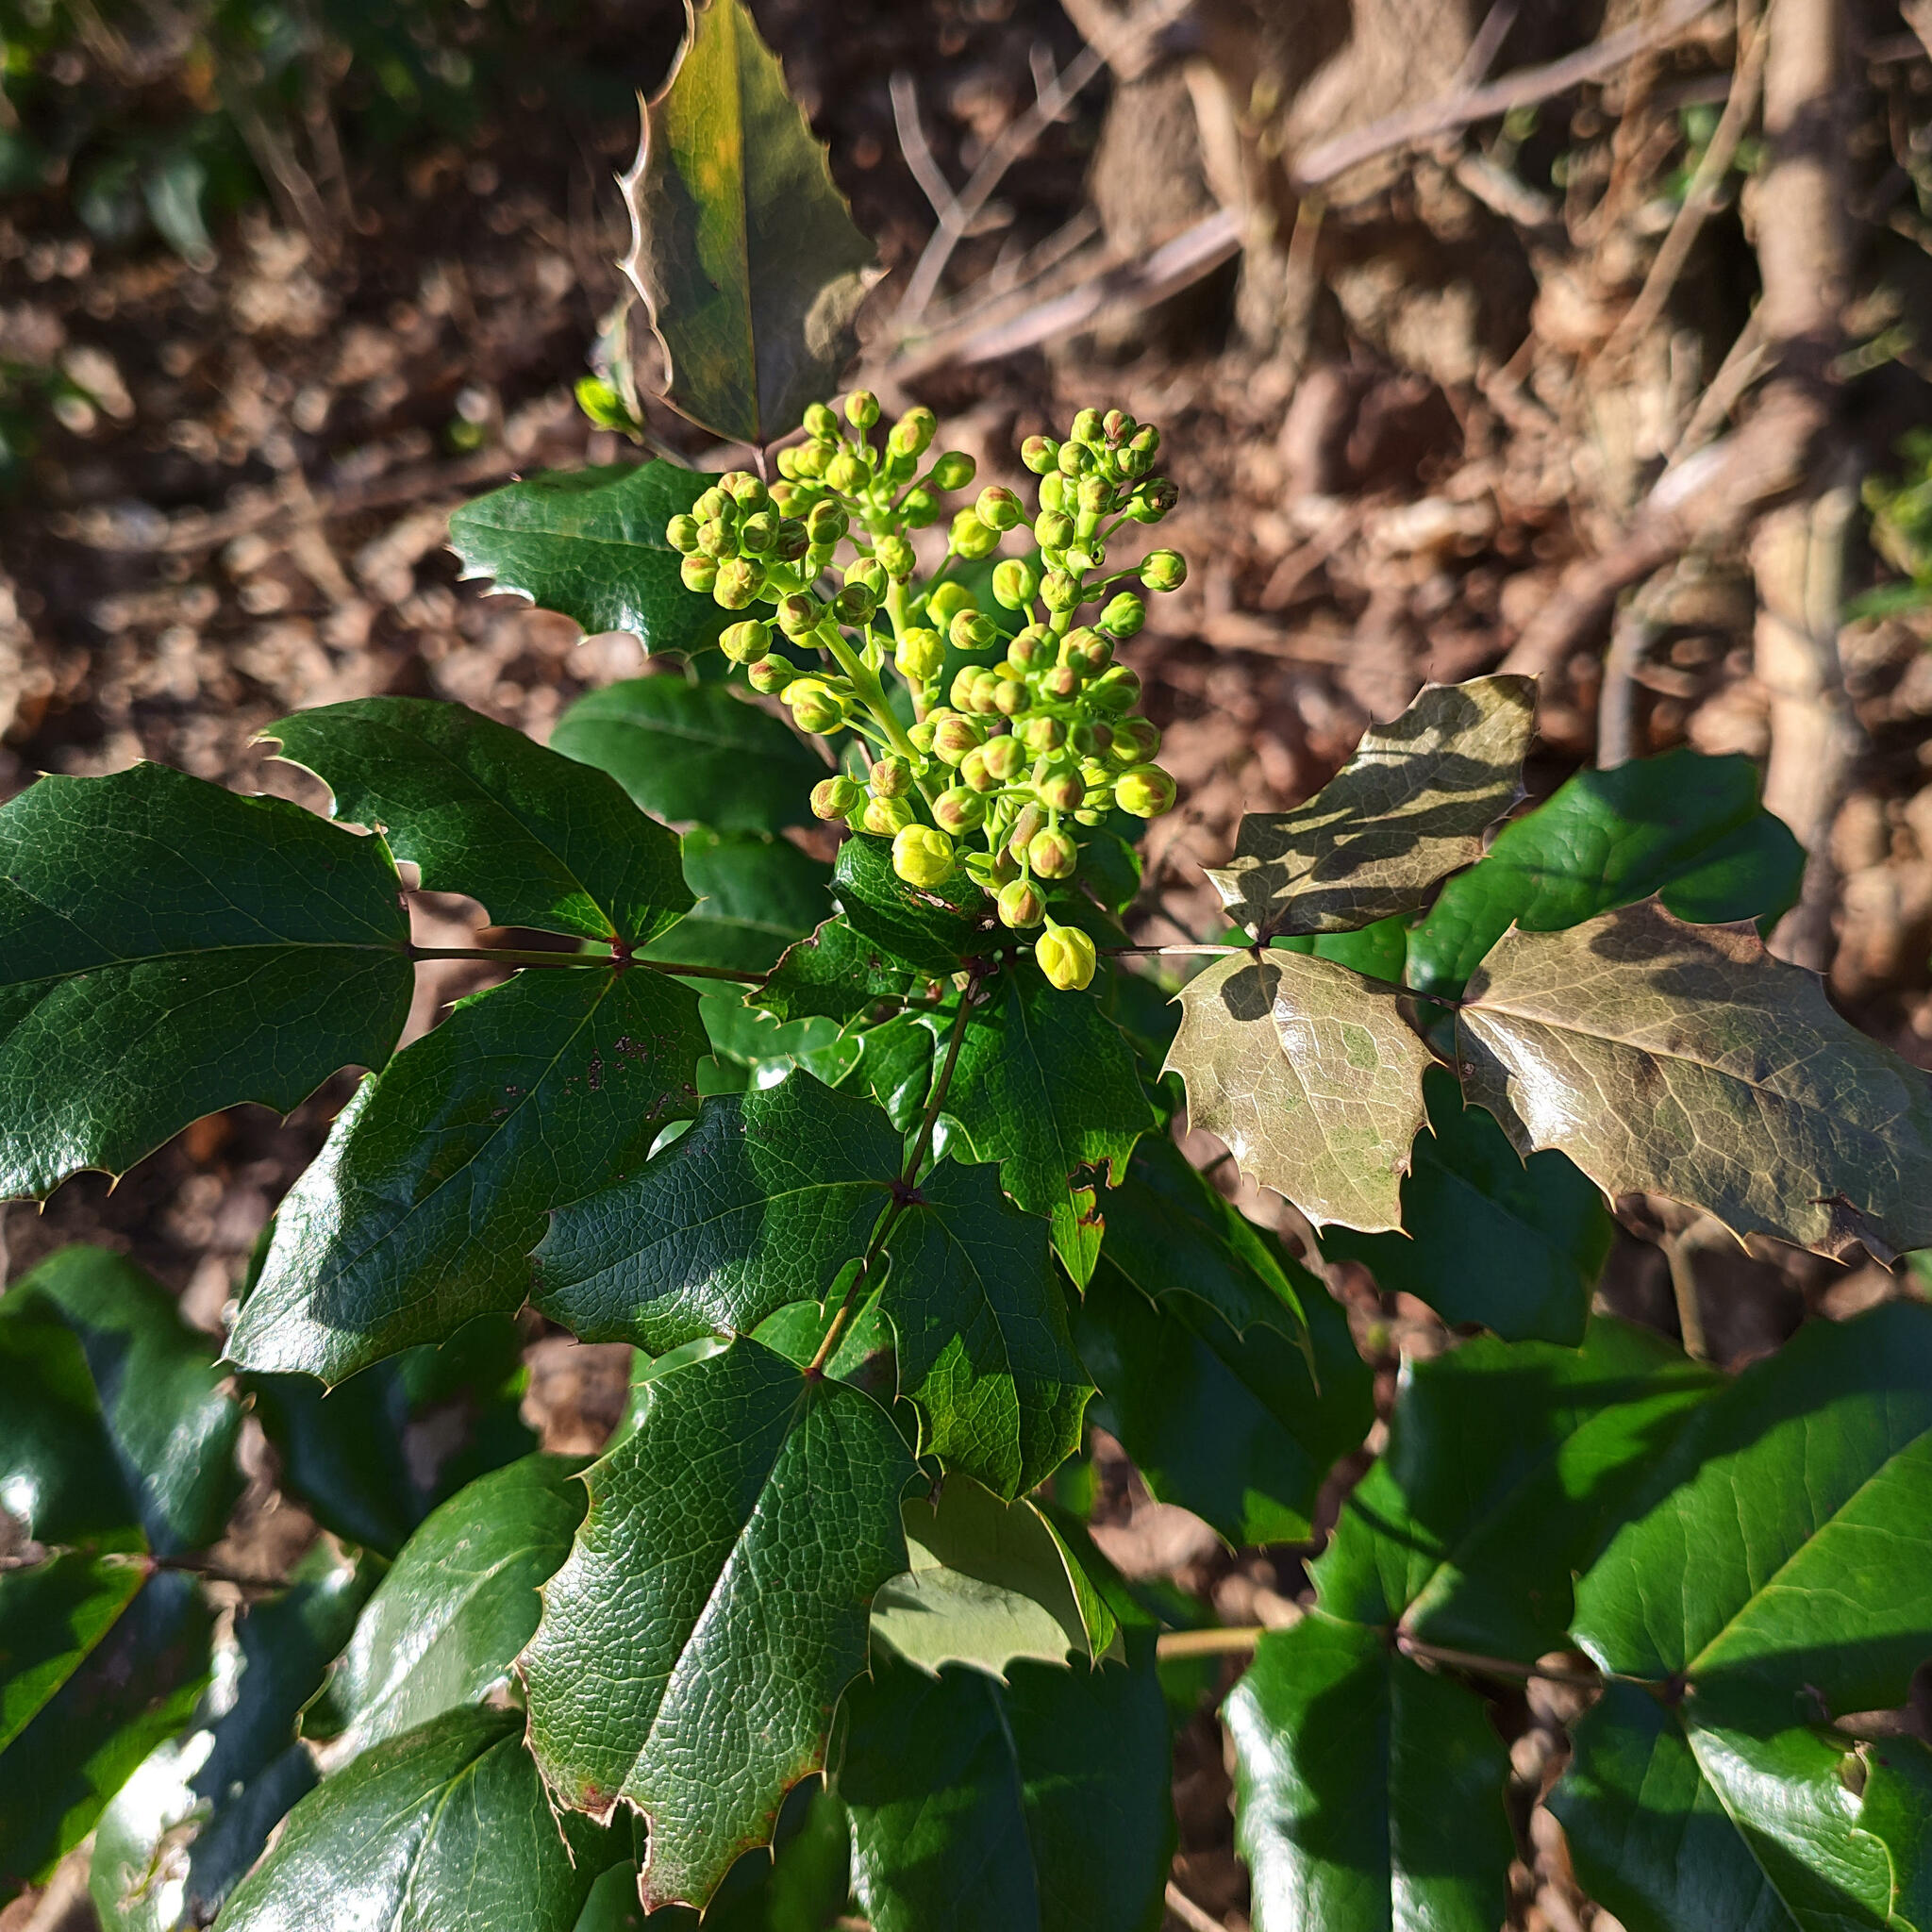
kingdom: Plantae
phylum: Tracheophyta
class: Magnoliopsida
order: Ranunculales
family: Berberidaceae
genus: Mahonia
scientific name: Mahonia aquifolium
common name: Oregon-grape
